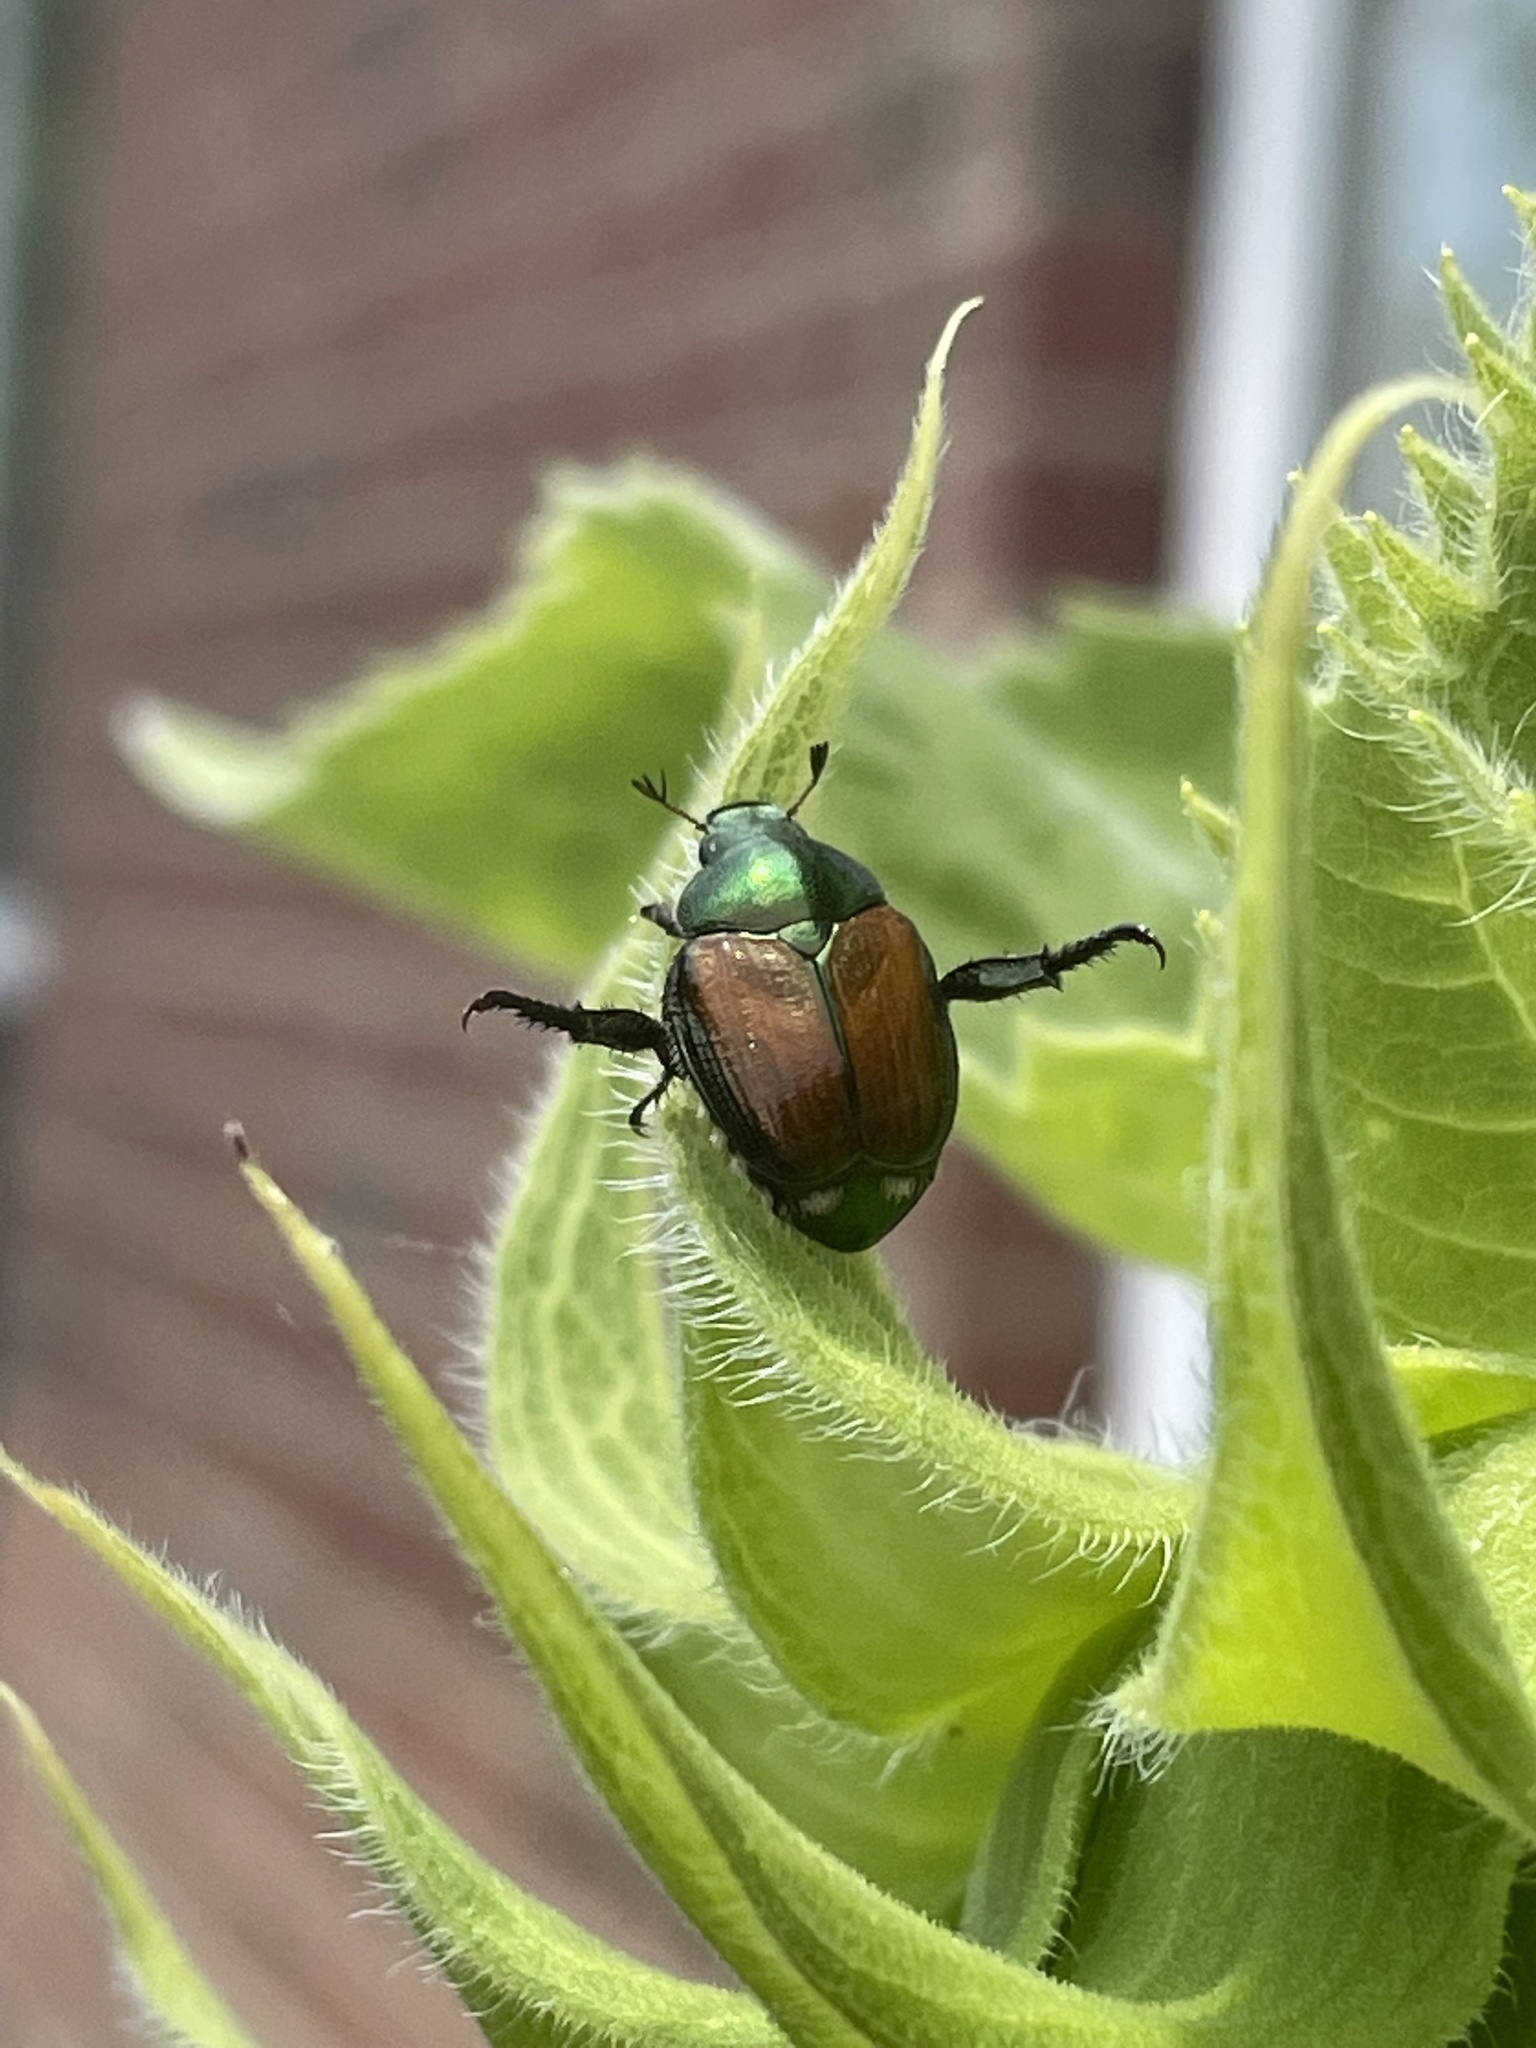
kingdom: Animalia
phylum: Arthropoda
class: Insecta
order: Coleoptera
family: Scarabaeidae
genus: Popillia
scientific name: Popillia japonica
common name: Japanese beetle
